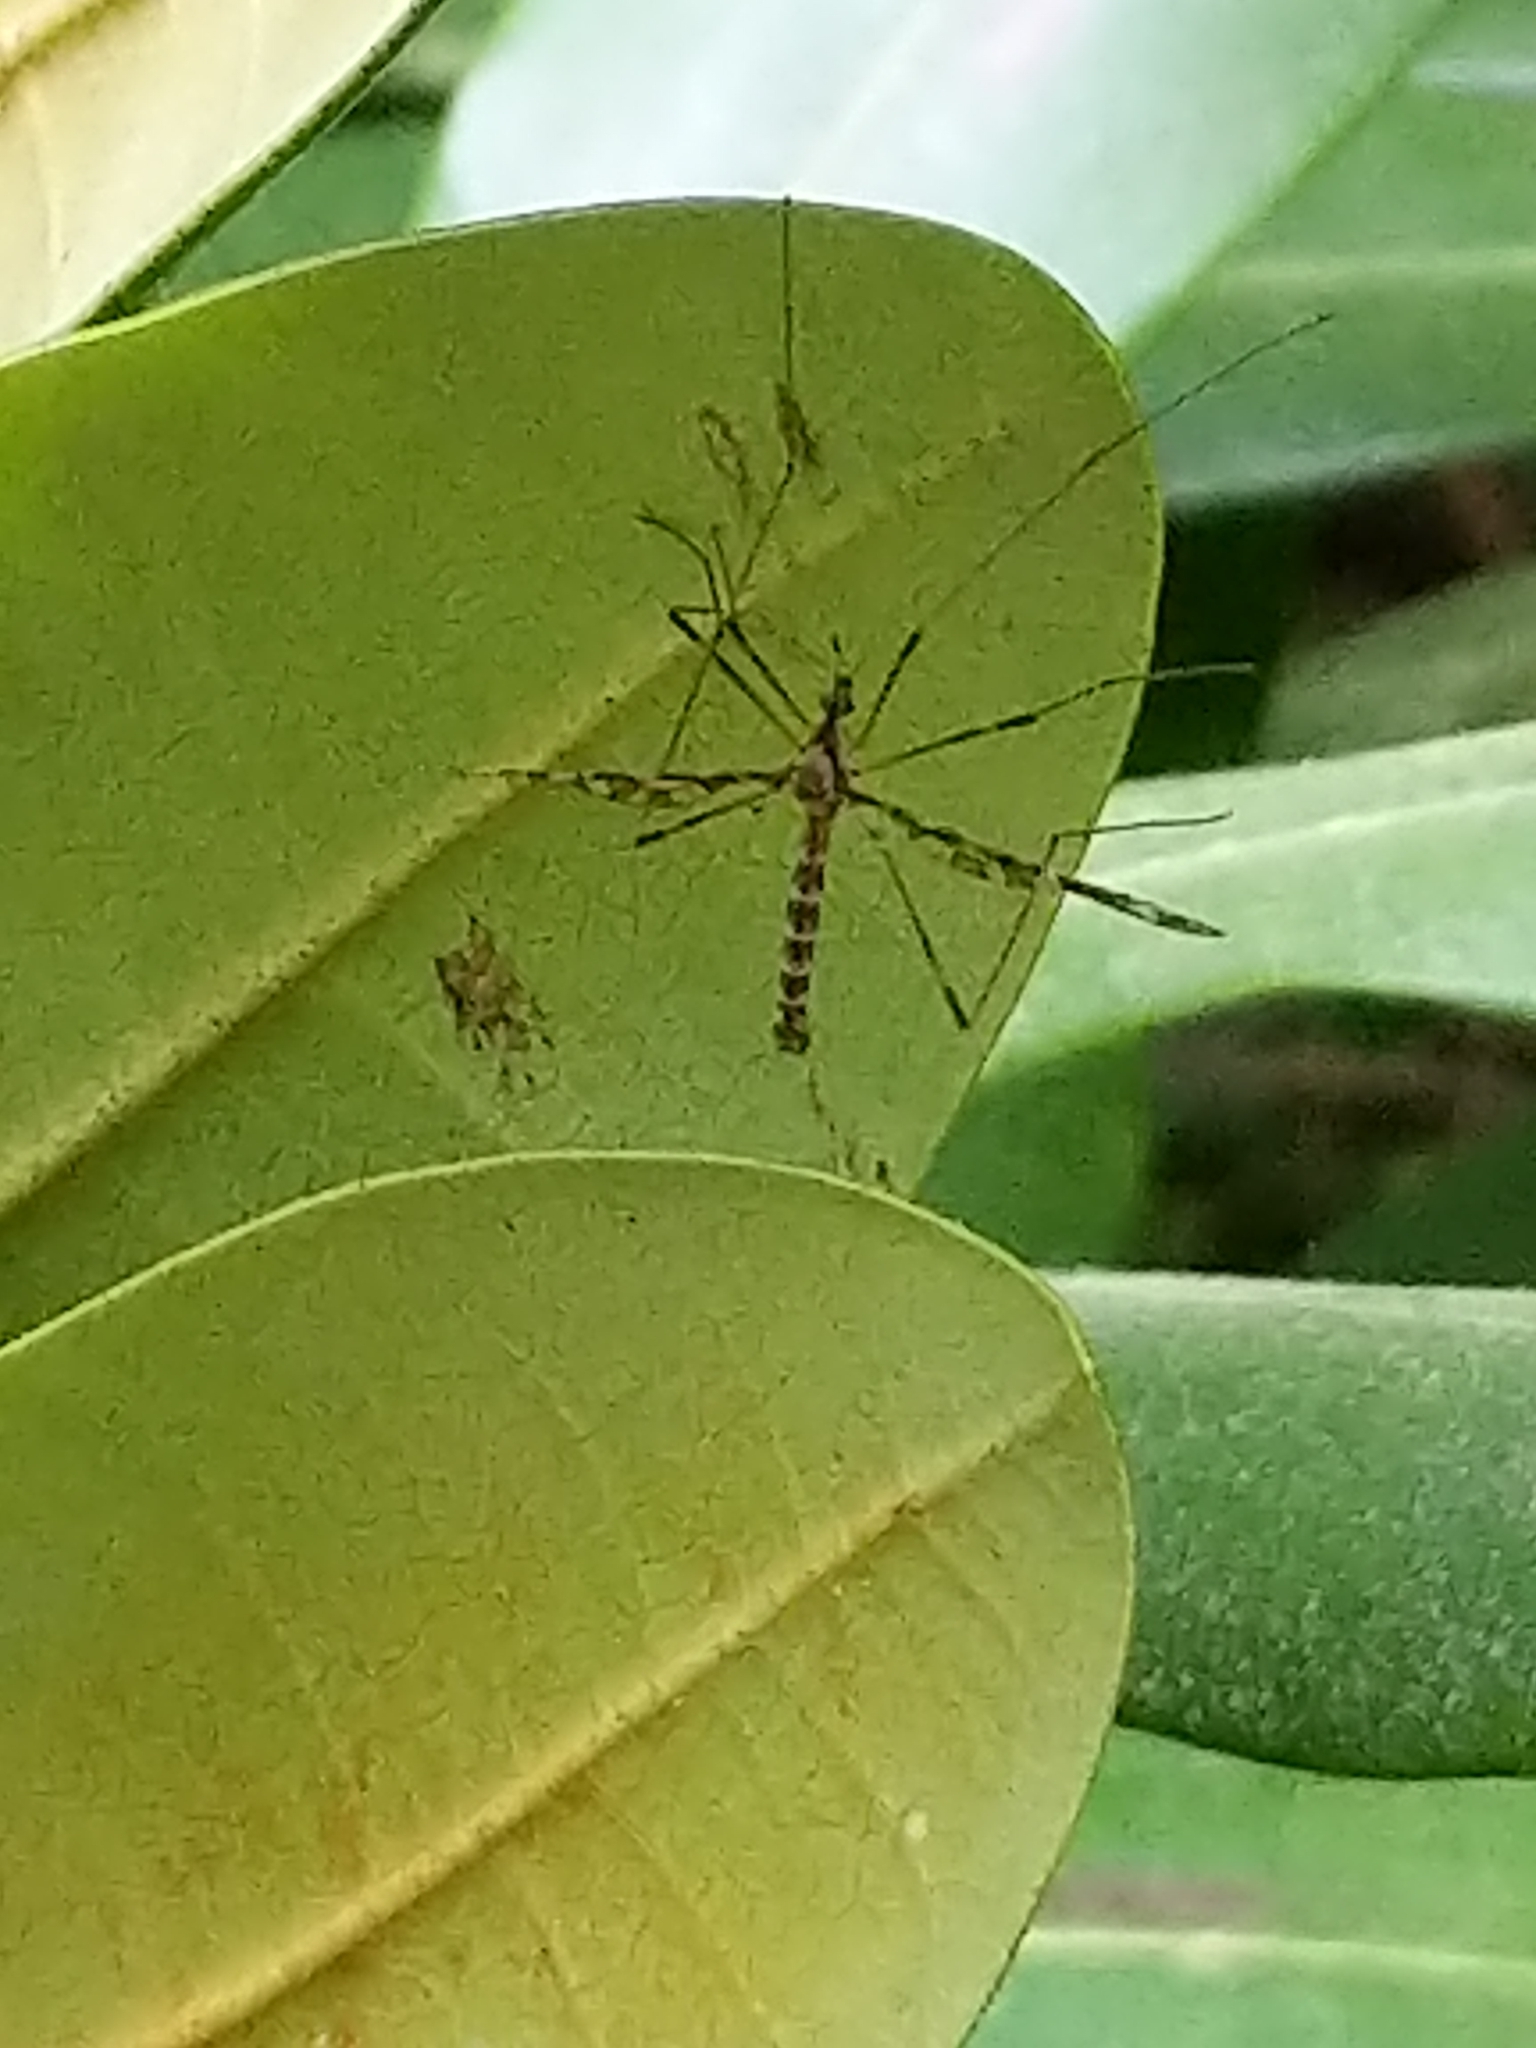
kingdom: Animalia
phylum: Arthropoda
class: Insecta
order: Diptera
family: Limoniidae
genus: Epiphragma
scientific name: Epiphragma fasciapenne
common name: Band-winged crane fly
